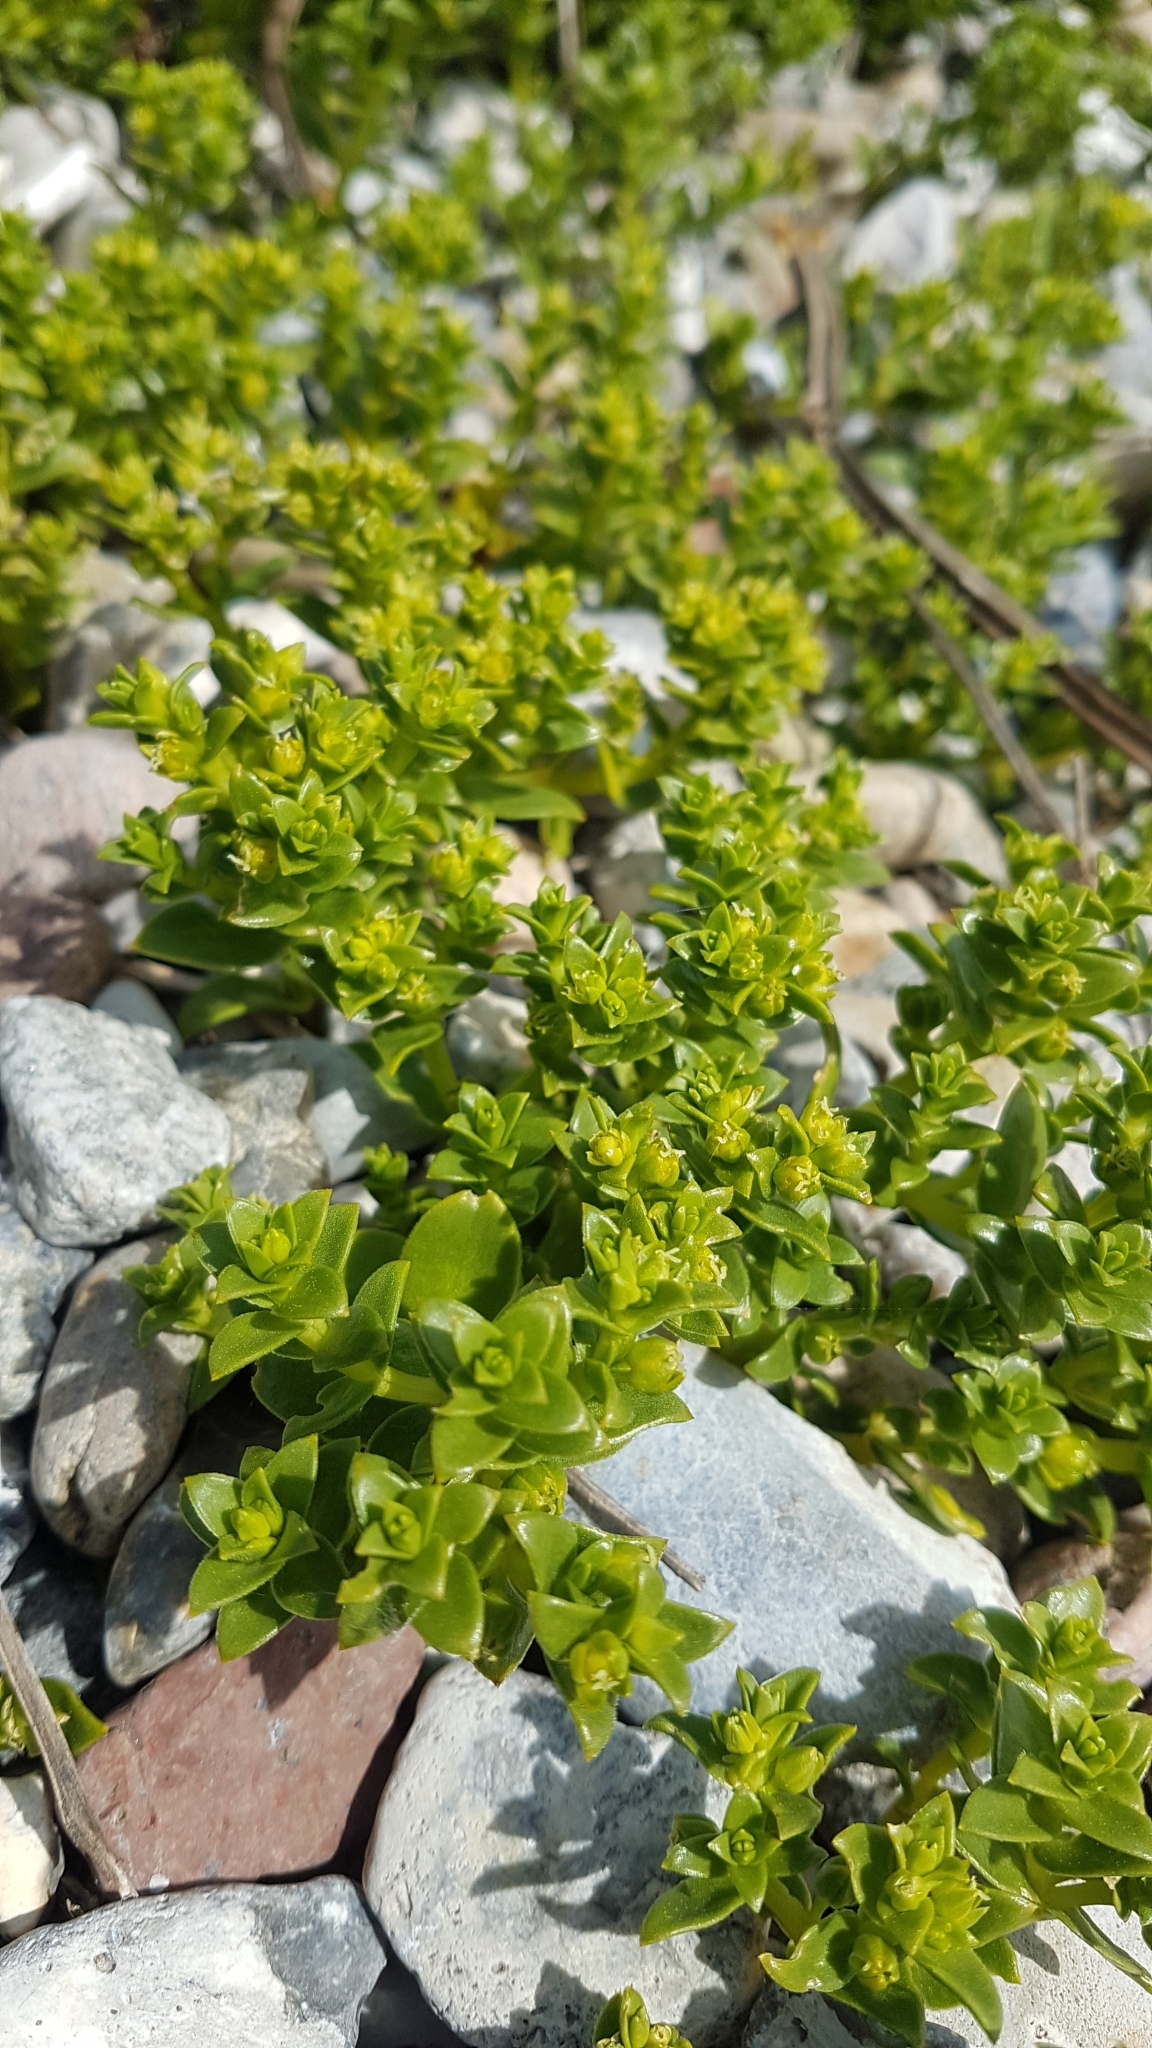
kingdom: Plantae
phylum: Tracheophyta
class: Magnoliopsida
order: Caryophyllales
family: Caryophyllaceae
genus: Honckenya
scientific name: Honckenya peploides
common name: Sea sandwort
